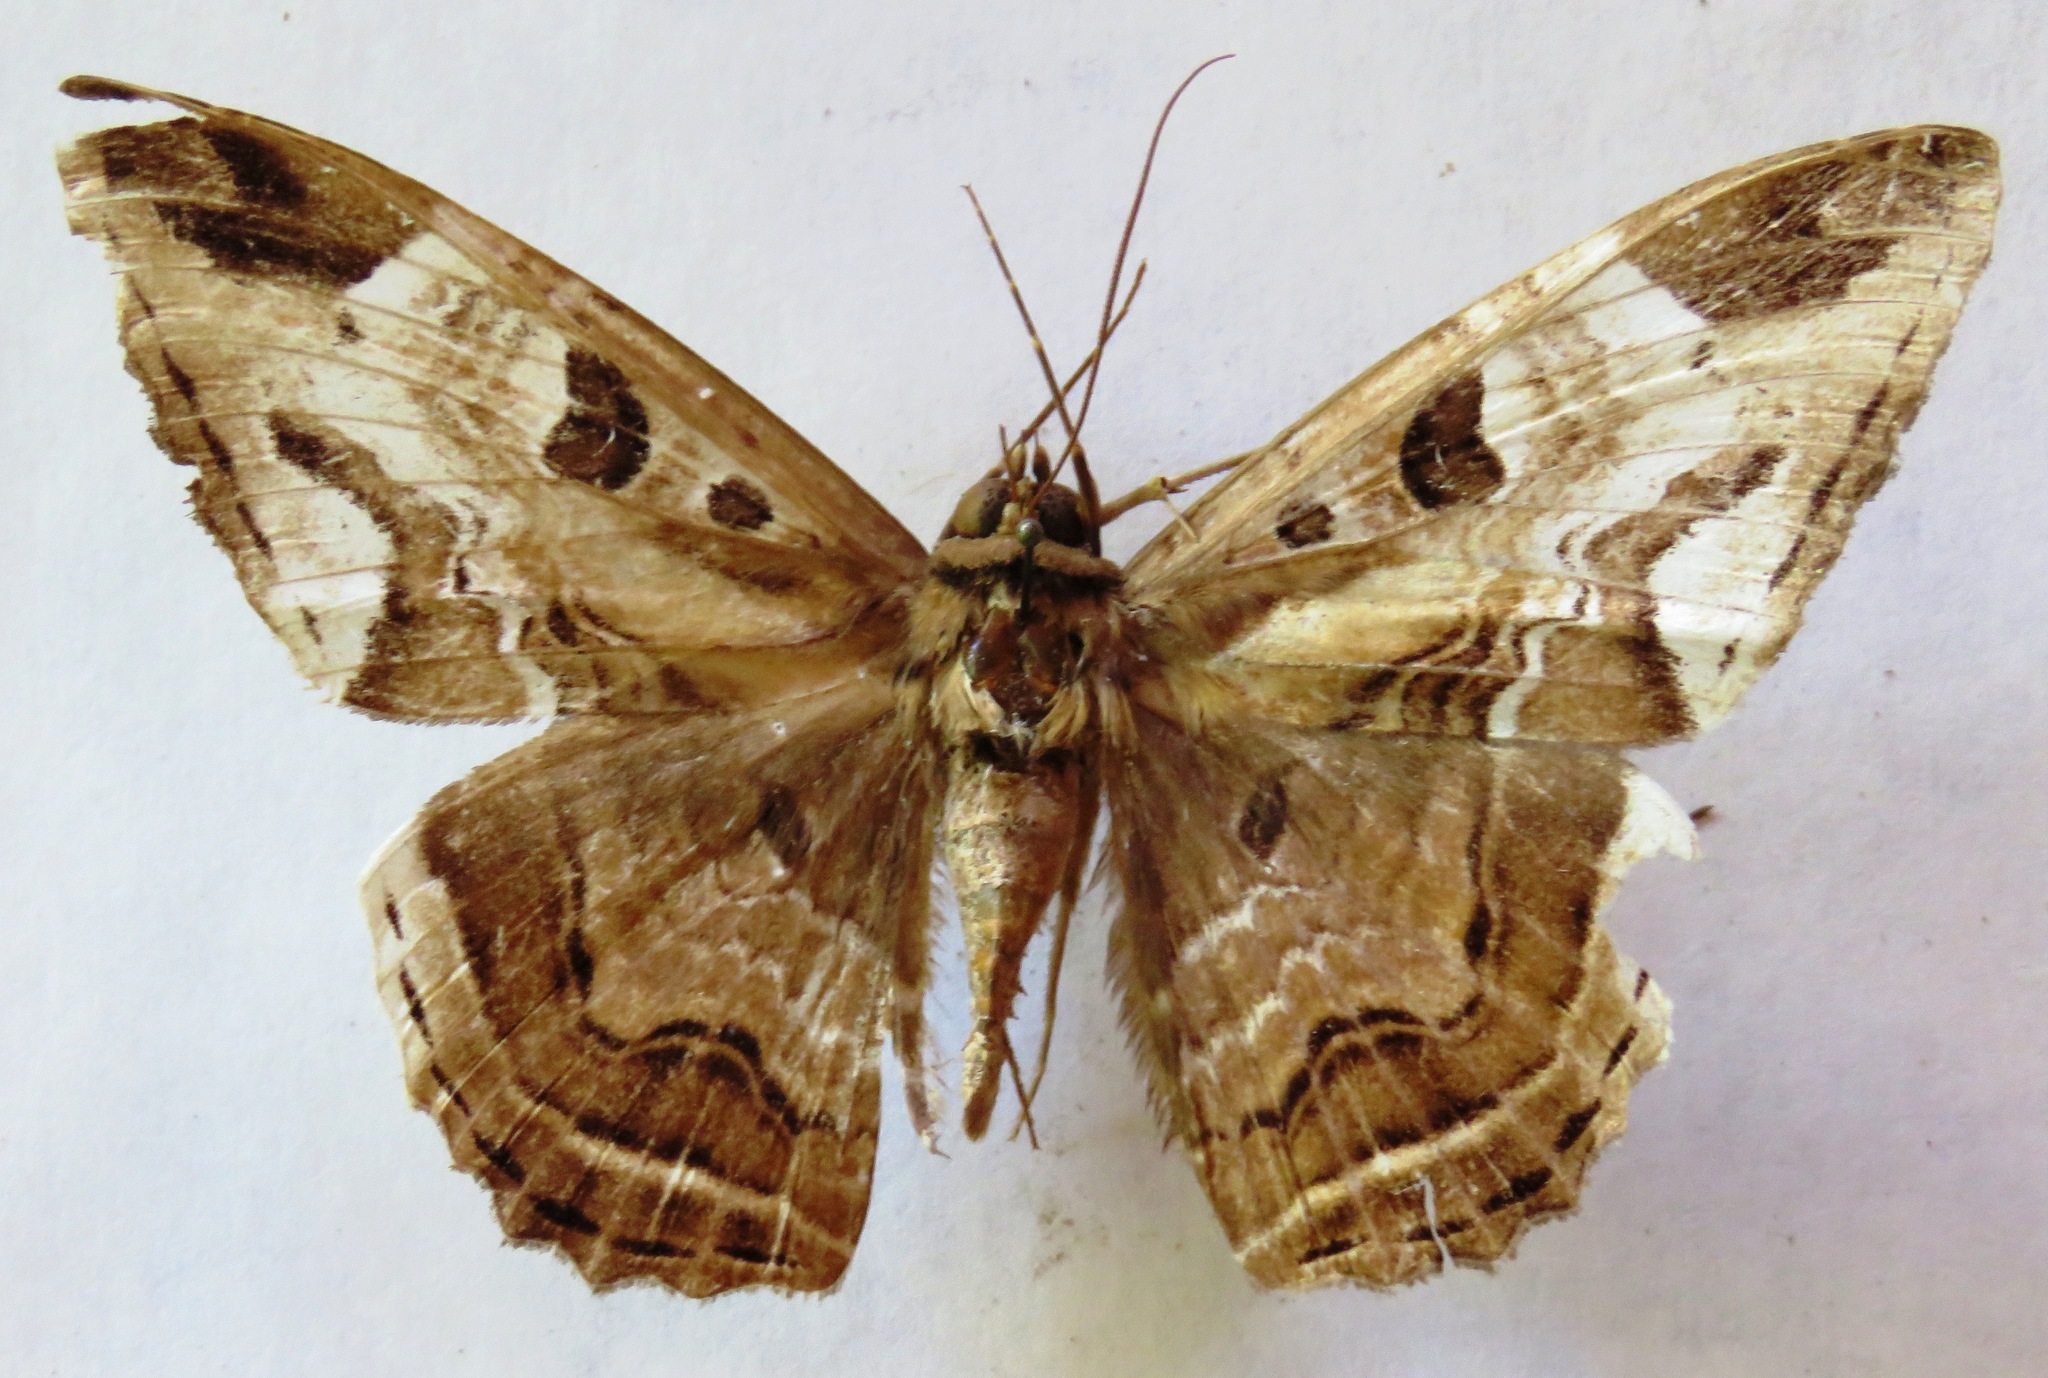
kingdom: Animalia
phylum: Arthropoda
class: Insecta
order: Lepidoptera
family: Erebidae
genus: Feigeria
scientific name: Feigeria herilia
